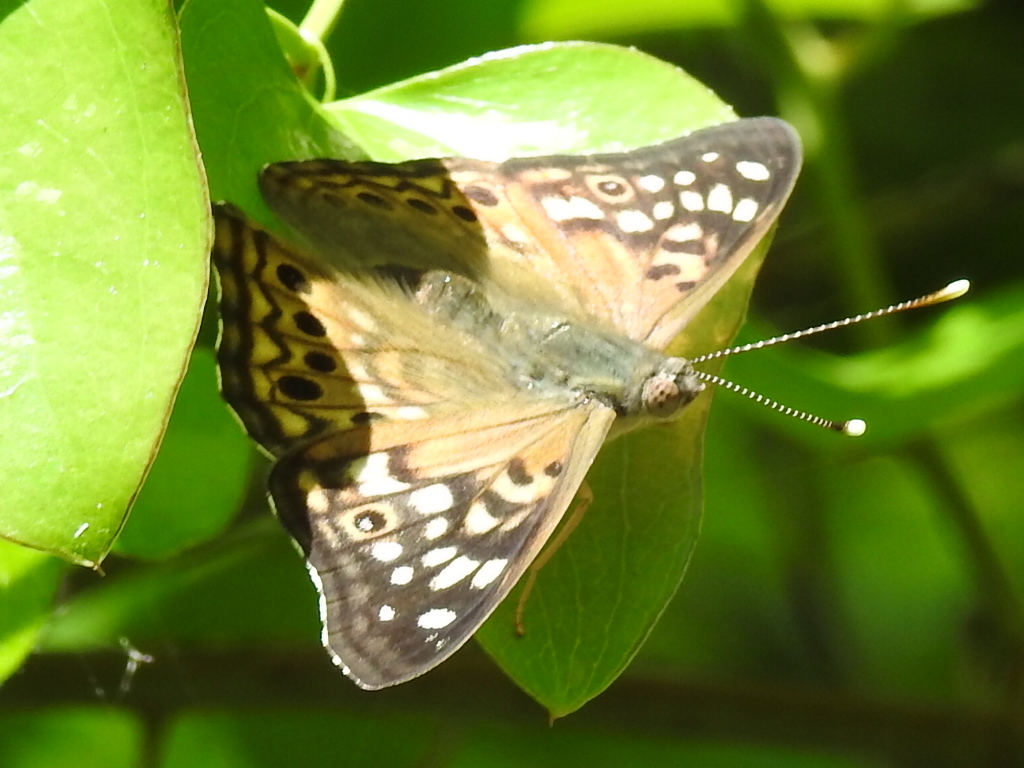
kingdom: Animalia
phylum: Arthropoda
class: Insecta
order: Lepidoptera
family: Nymphalidae
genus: Asterocampa
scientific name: Asterocampa celtis
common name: Hackberry emperor
